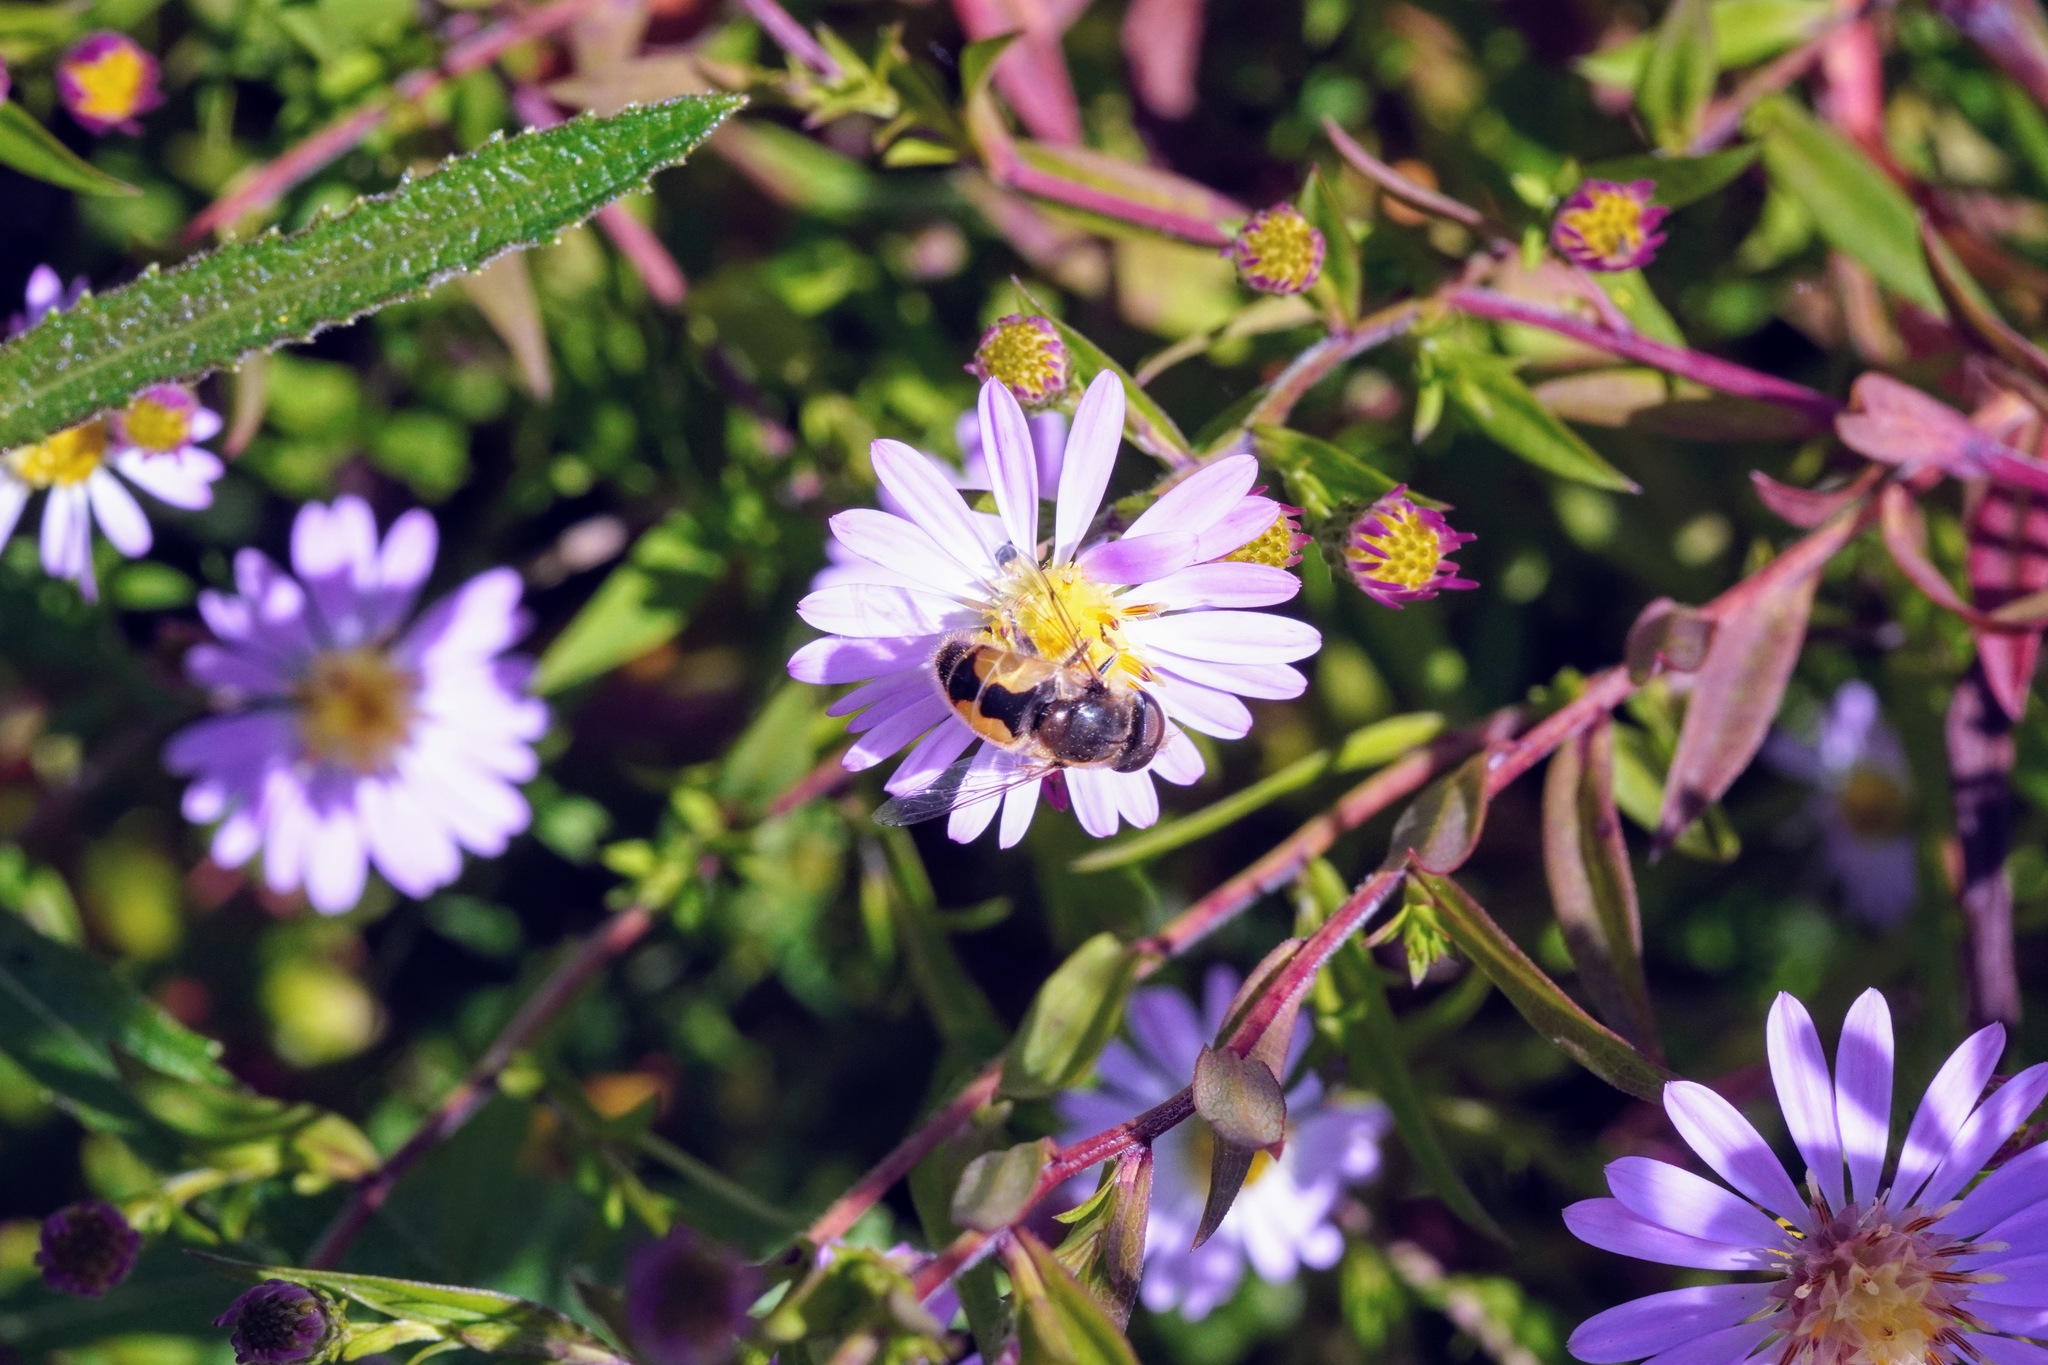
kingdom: Animalia
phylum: Arthropoda
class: Insecta
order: Diptera
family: Syrphidae
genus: Eristalis
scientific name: Eristalis arbustorum
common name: Hover fly
